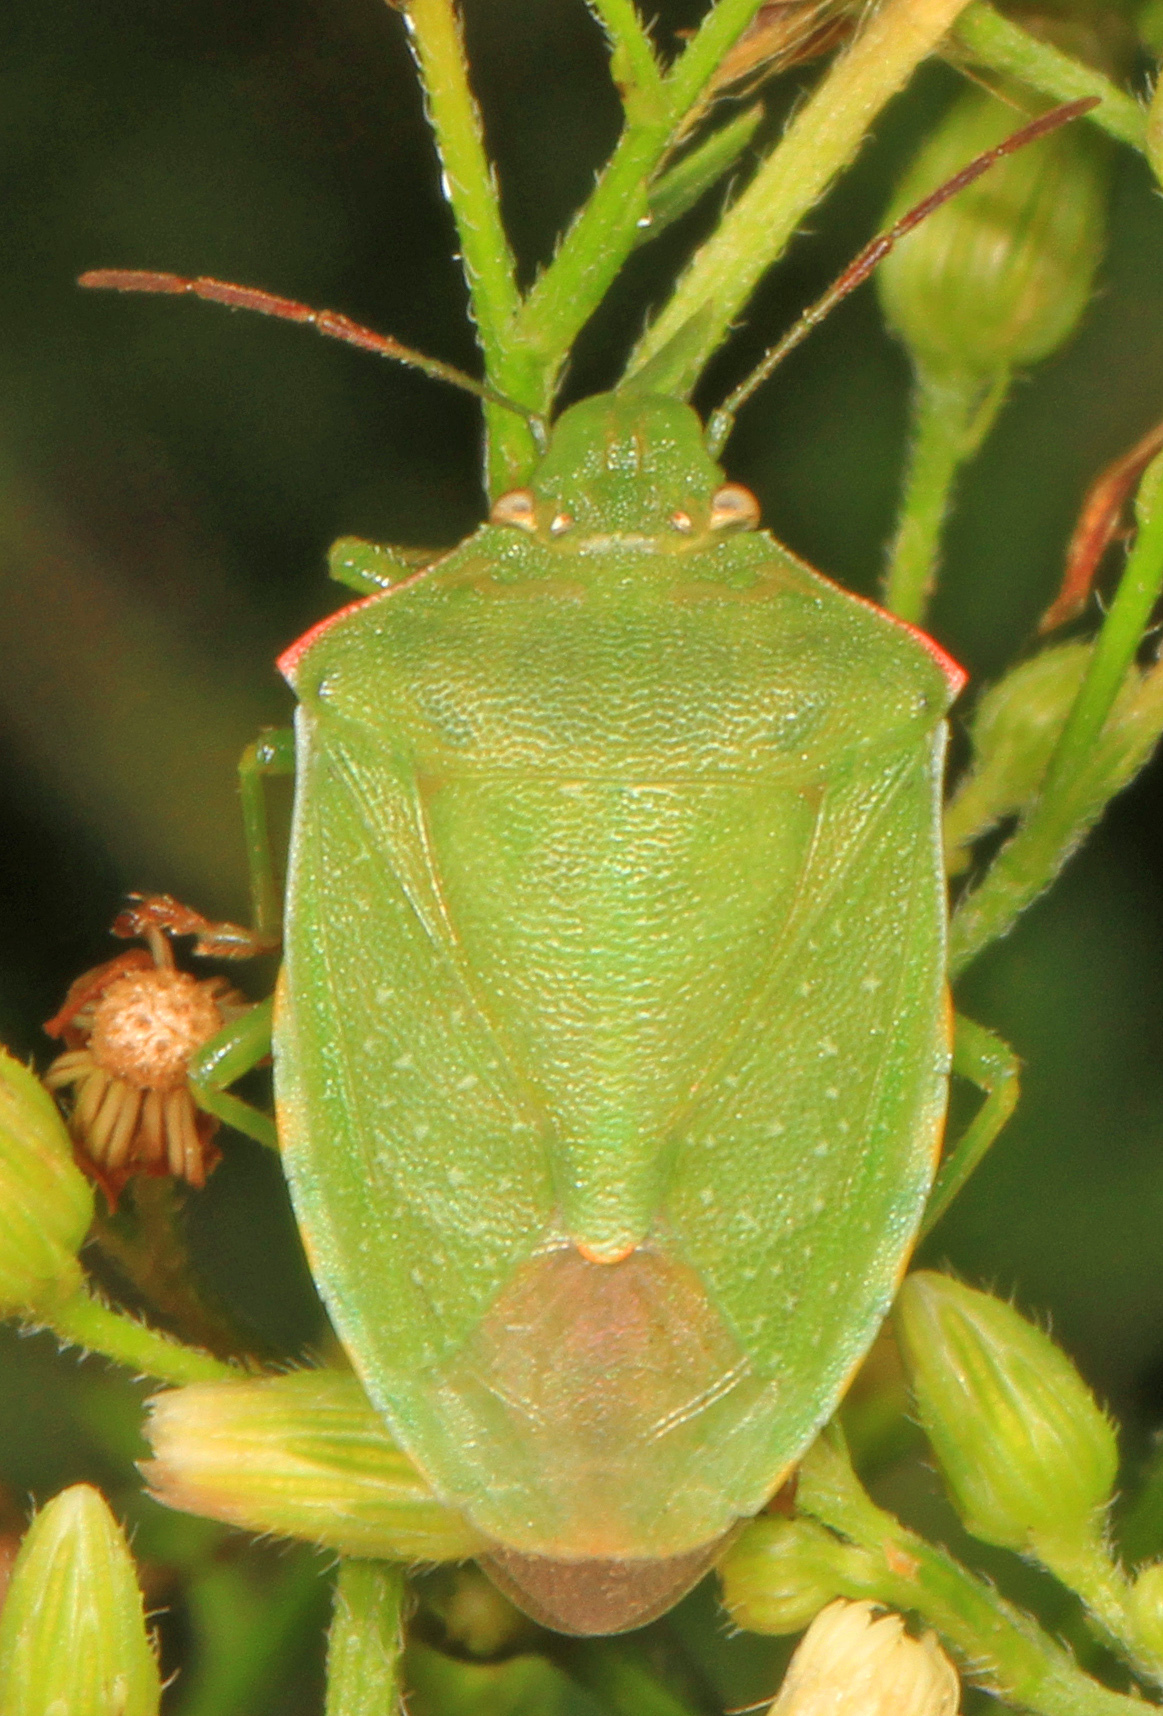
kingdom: Animalia
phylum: Arthropoda
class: Insecta
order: Hemiptera
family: Pentatomidae
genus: Thyanta
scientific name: Thyanta custator
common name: Stink bug
